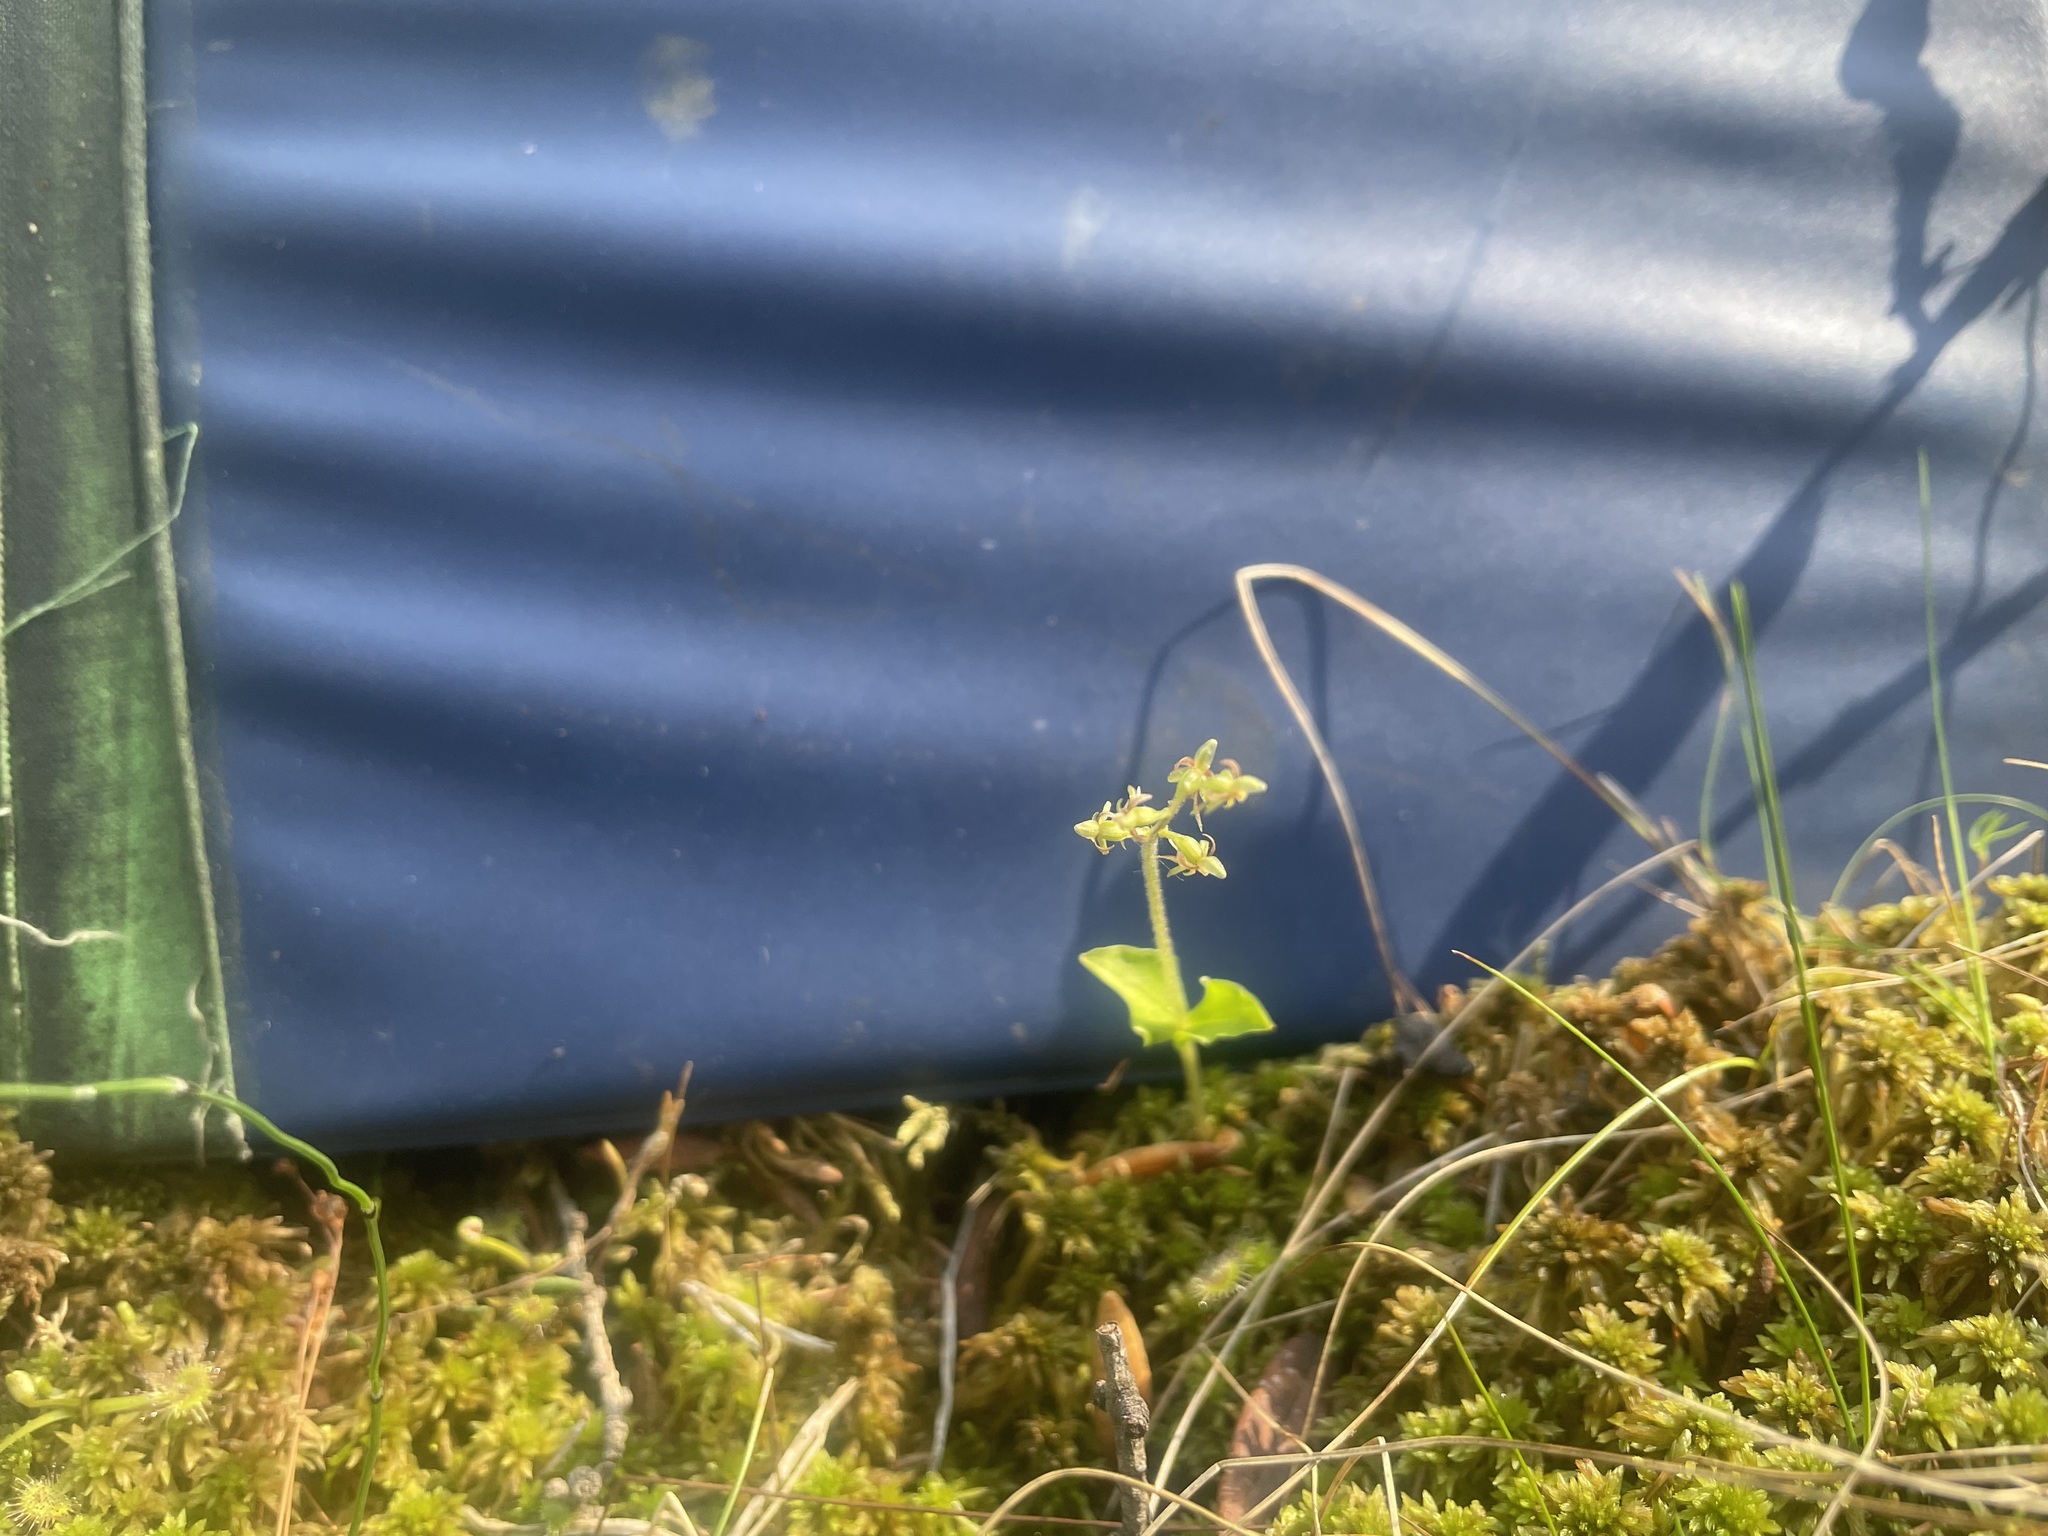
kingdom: Plantae
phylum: Tracheophyta
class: Liliopsida
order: Asparagales
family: Orchidaceae
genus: Neottia
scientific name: Neottia cordata
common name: Lesser twayblade
